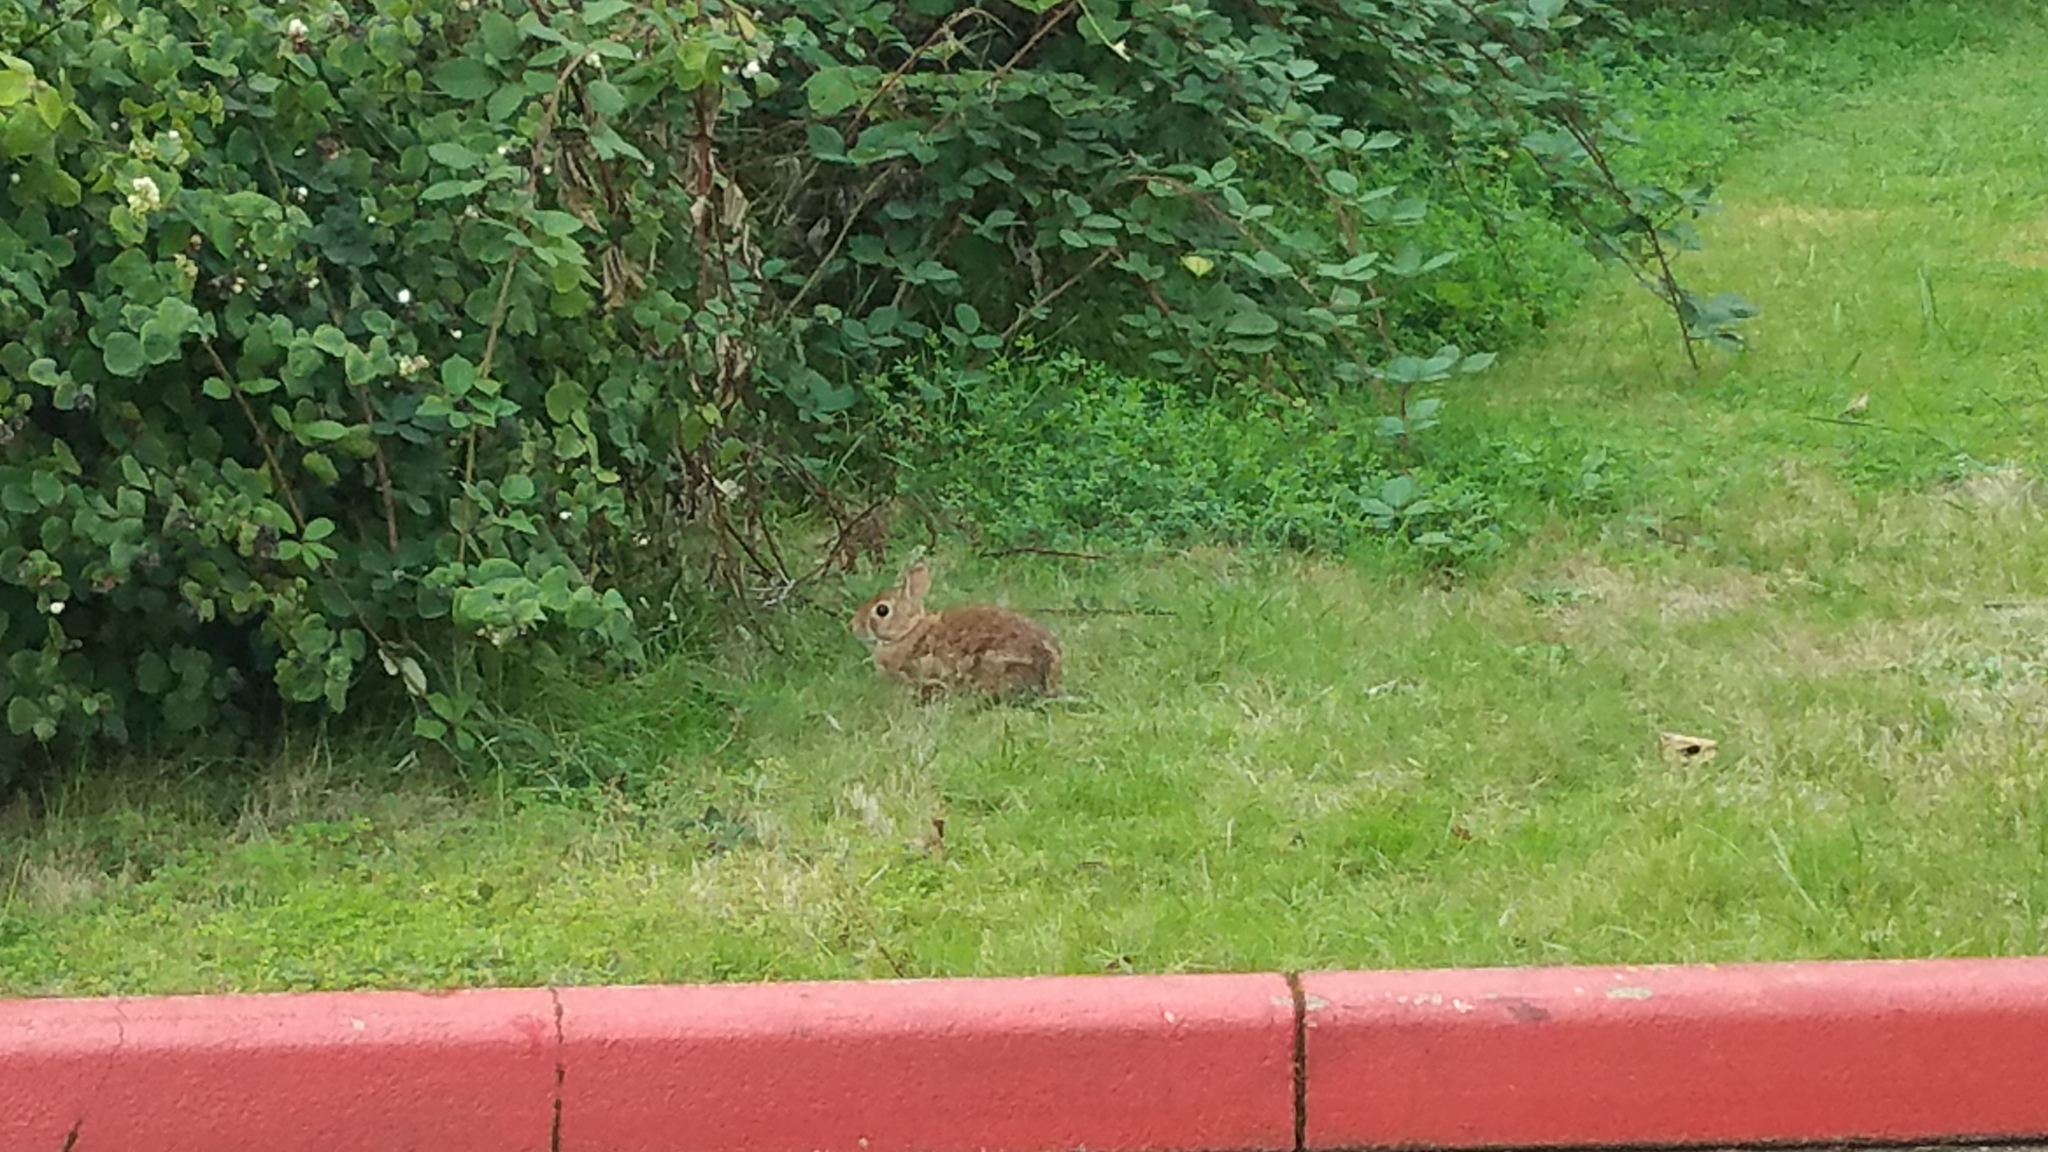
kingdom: Animalia
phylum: Chordata
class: Mammalia
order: Lagomorpha
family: Leporidae
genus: Sylvilagus
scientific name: Sylvilagus floridanus
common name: Eastern cottontail
